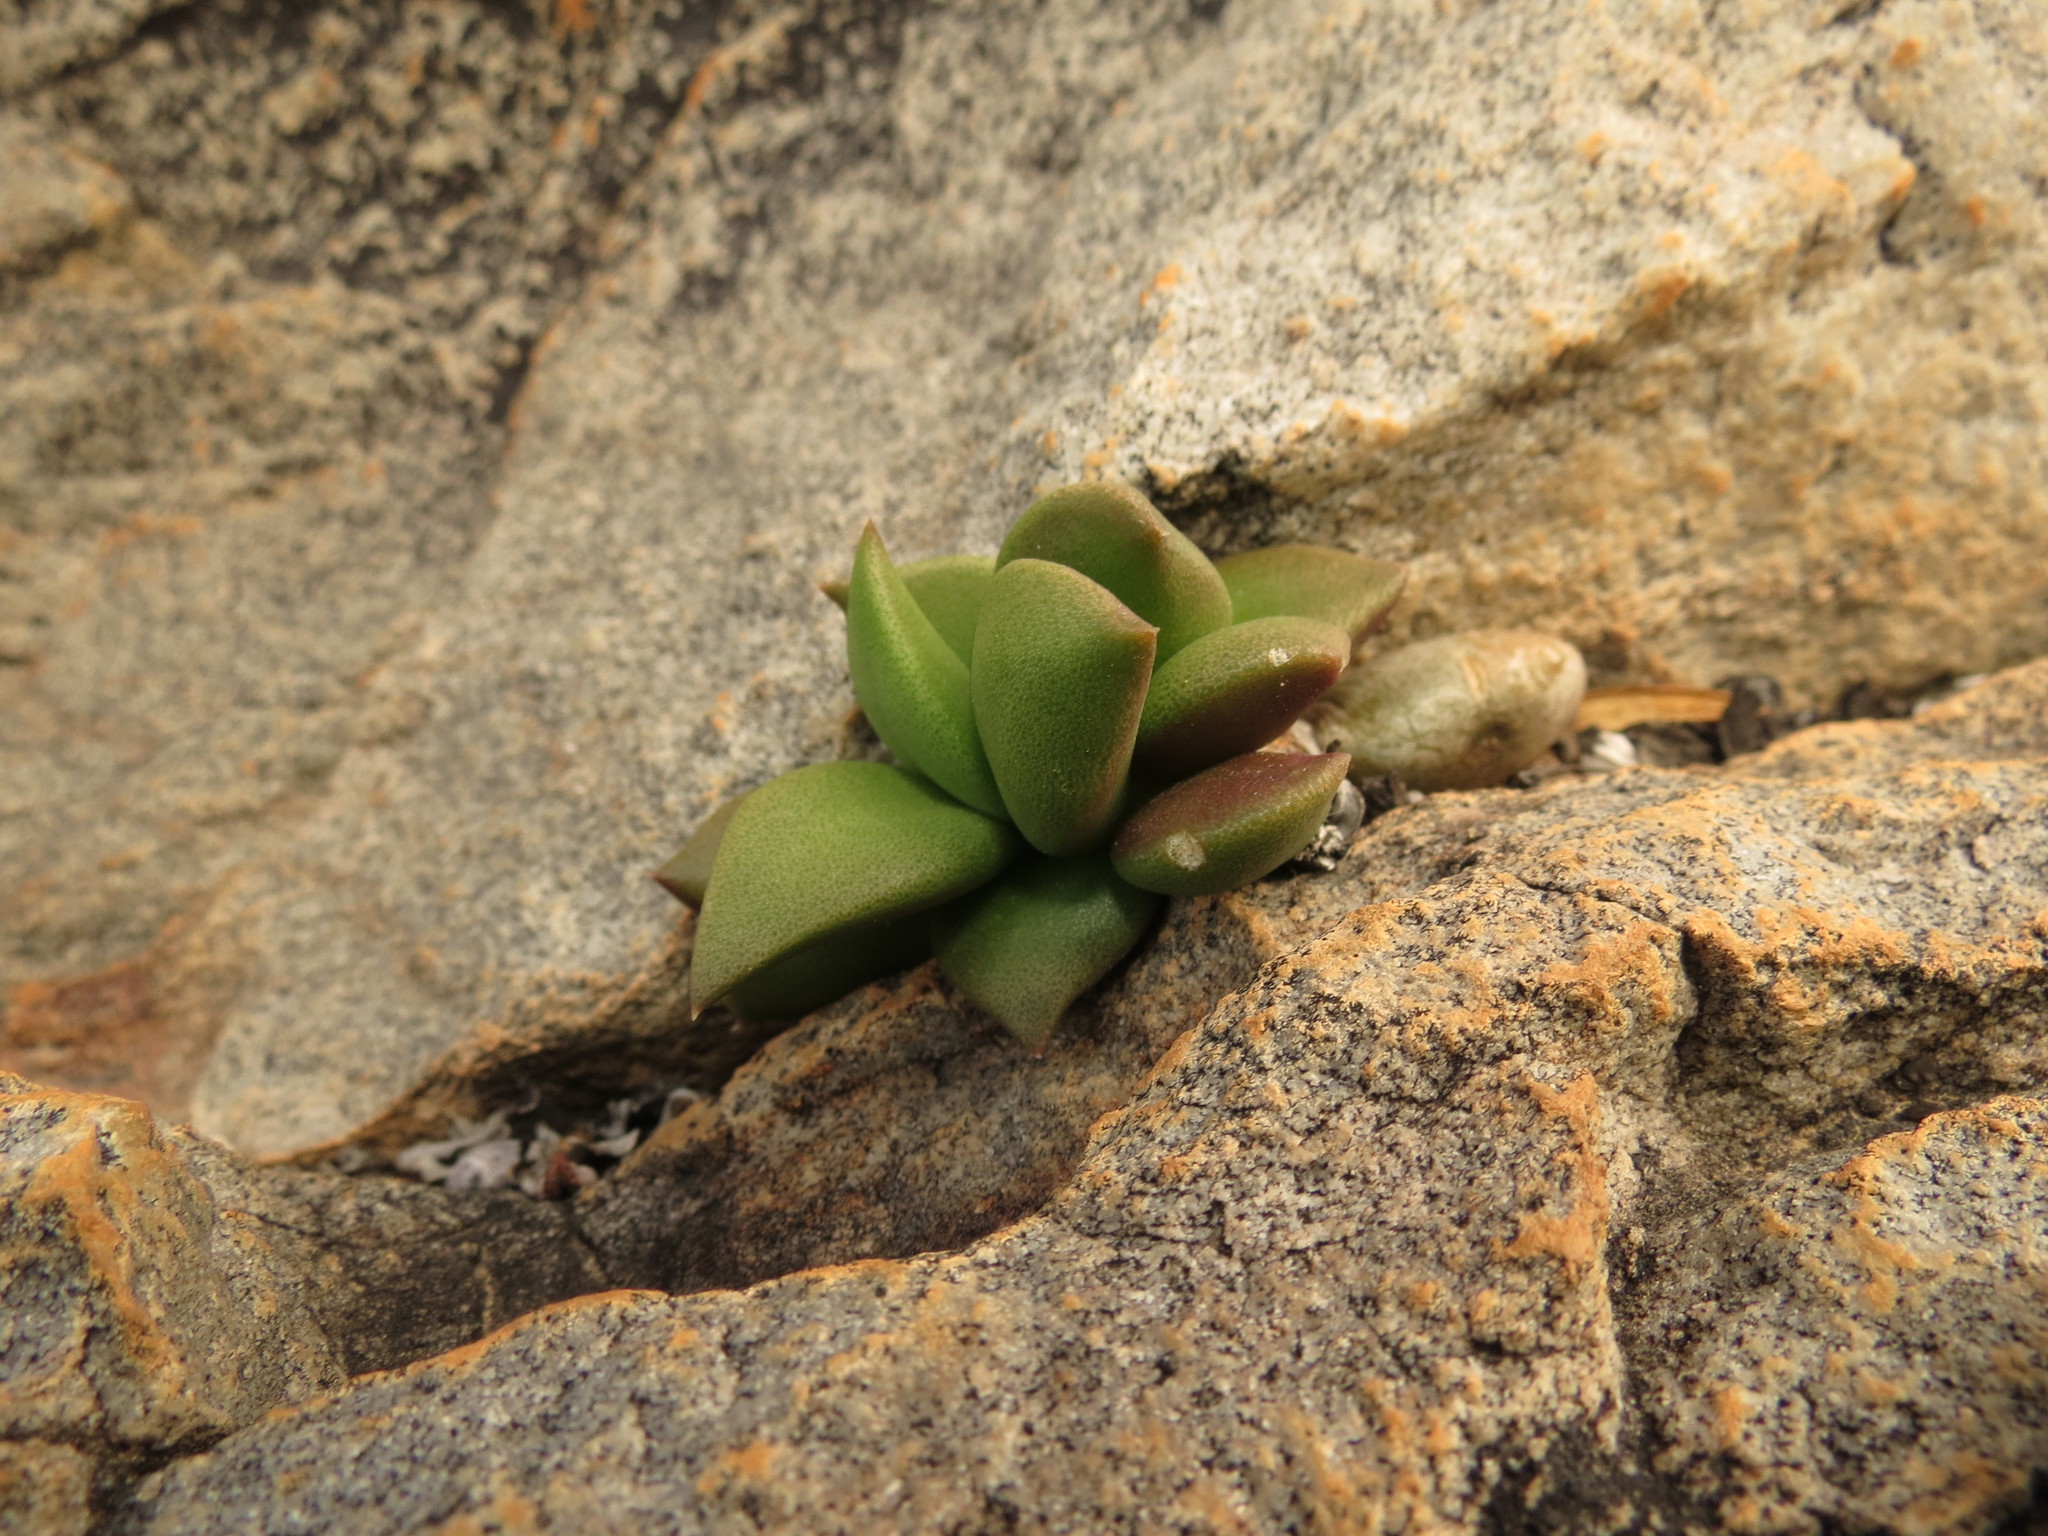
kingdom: Plantae
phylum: Tracheophyta
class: Magnoliopsida
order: Caryophyllales
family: Anacampserotaceae
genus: Anacampseros
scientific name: Anacampseros telephiastrum
